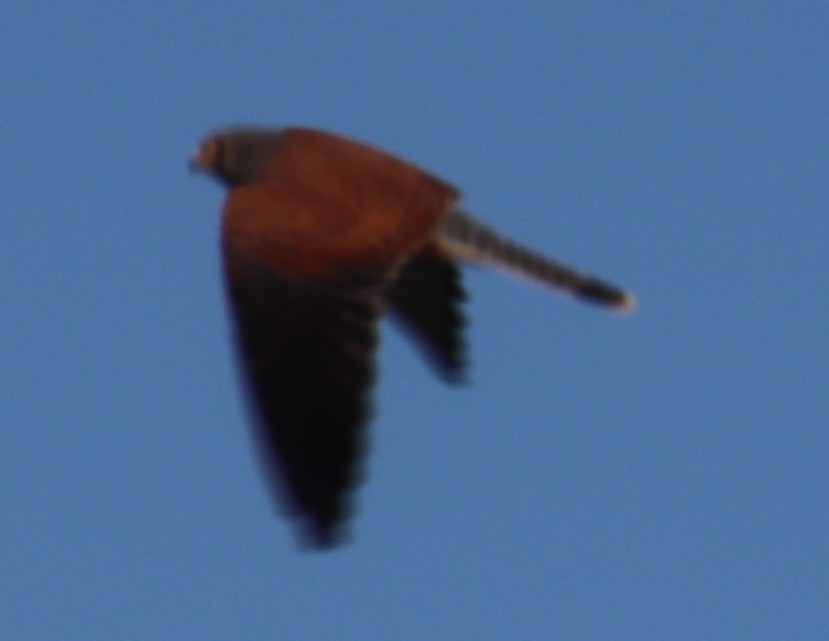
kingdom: Animalia
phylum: Chordata
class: Aves
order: Falconiformes
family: Falconidae
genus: Falco
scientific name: Falco rupicolus
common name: Rock kestrel
